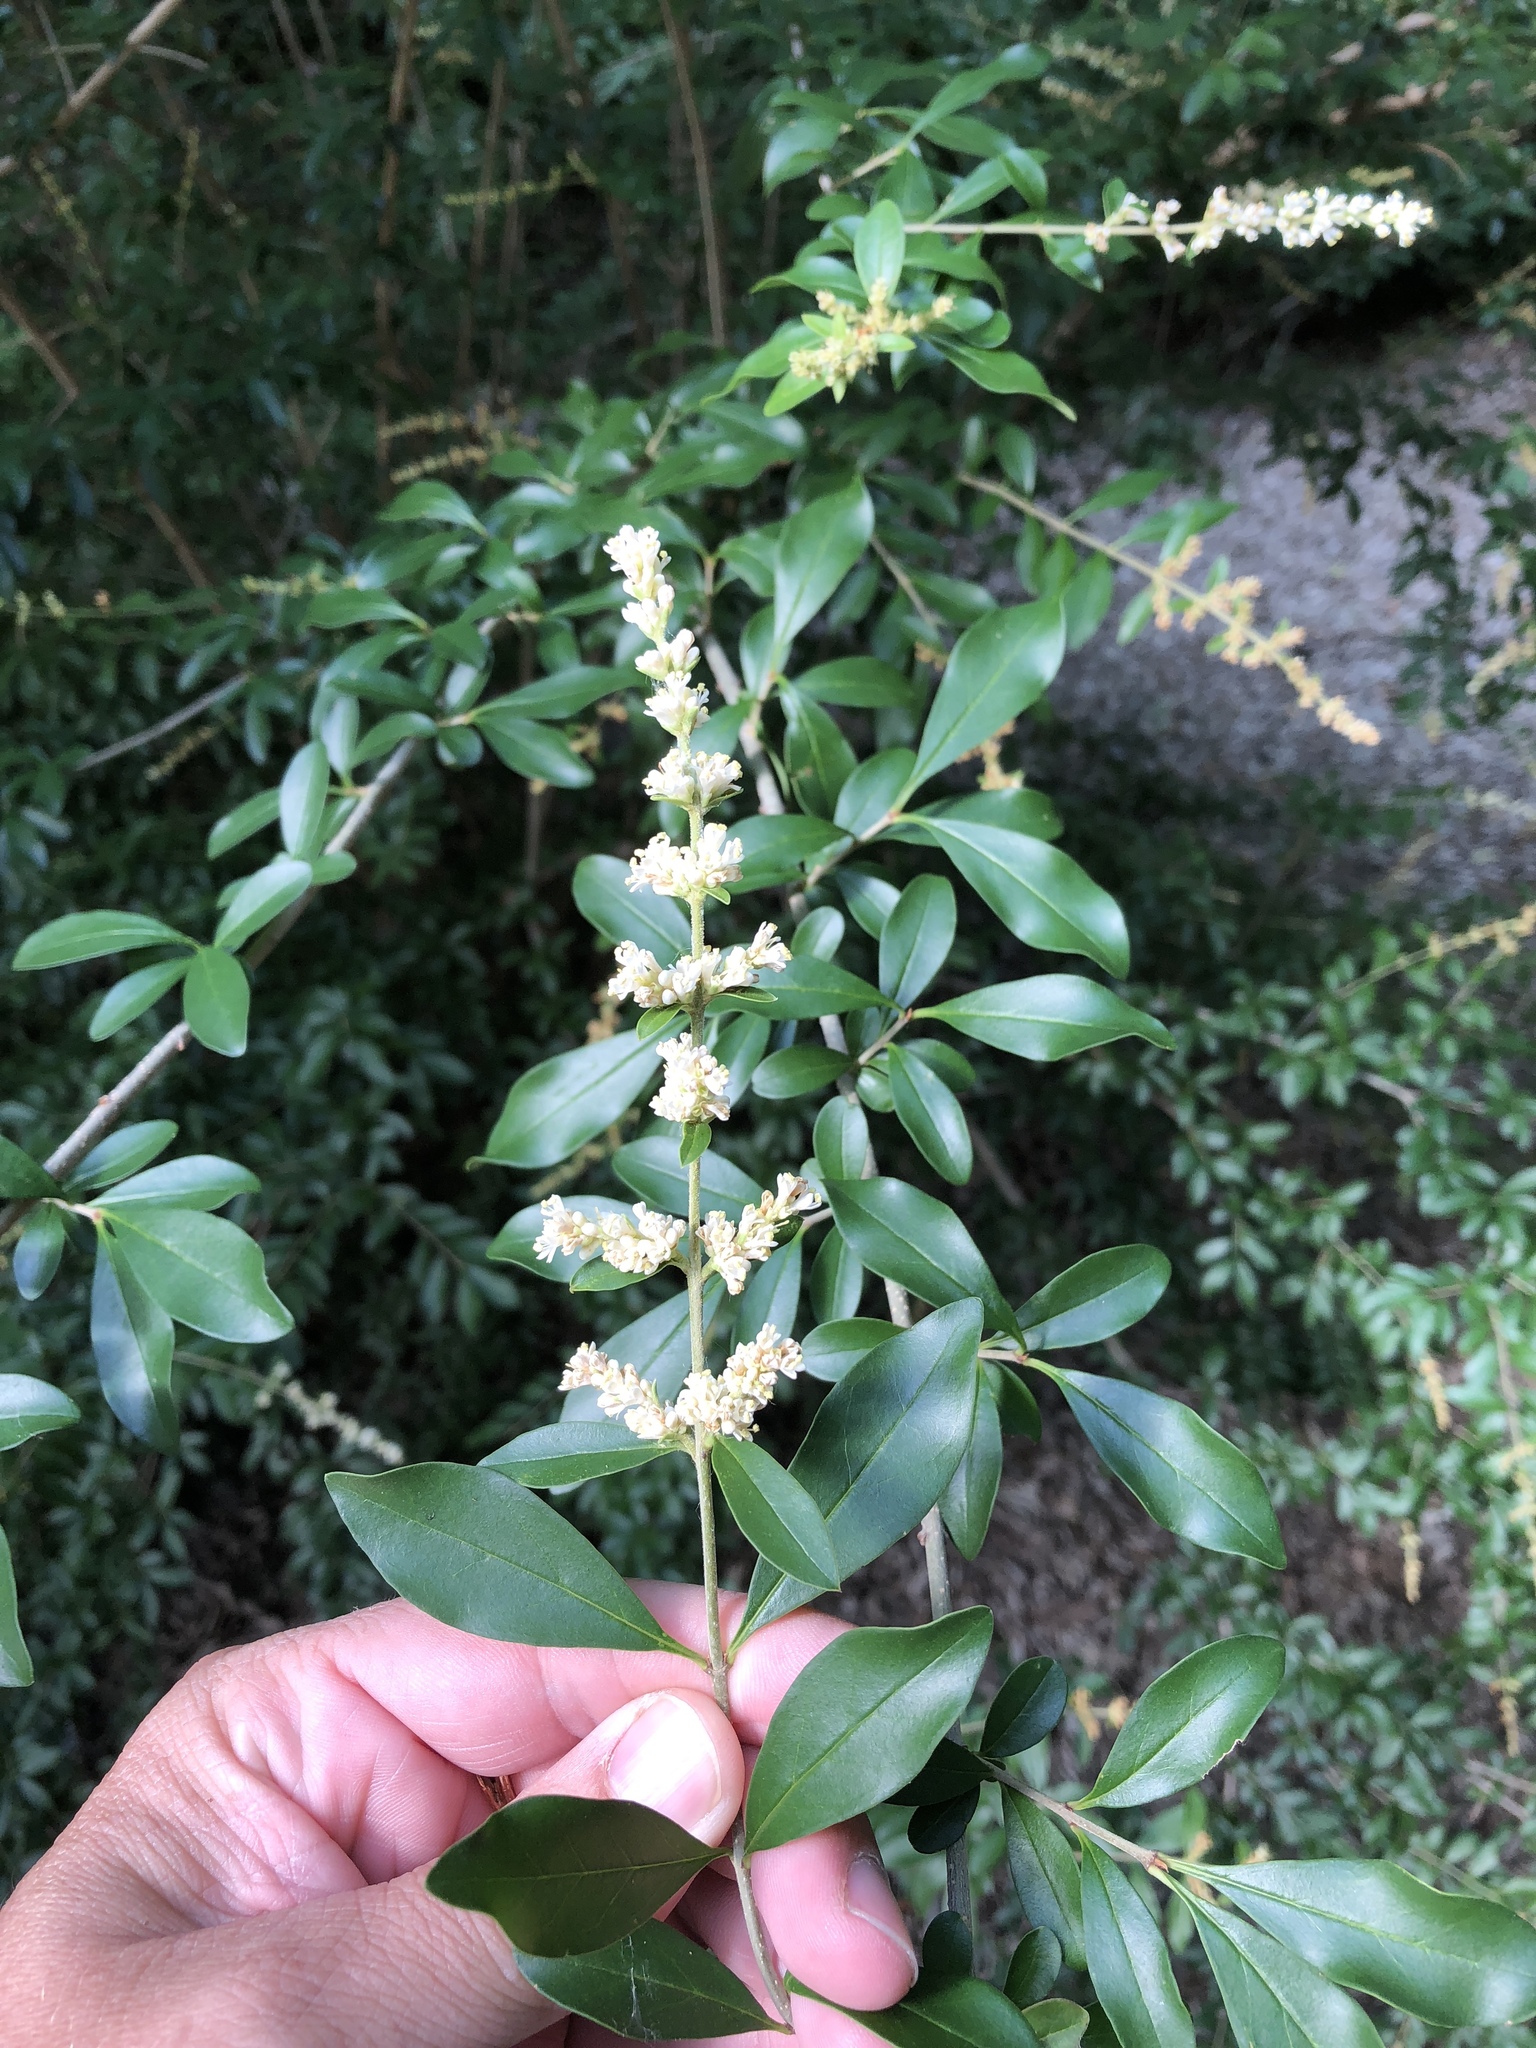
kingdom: Plantae
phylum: Tracheophyta
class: Magnoliopsida
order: Lamiales
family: Oleaceae
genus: Ligustrum
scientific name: Ligustrum quihoui
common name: Waxyleaf privet
